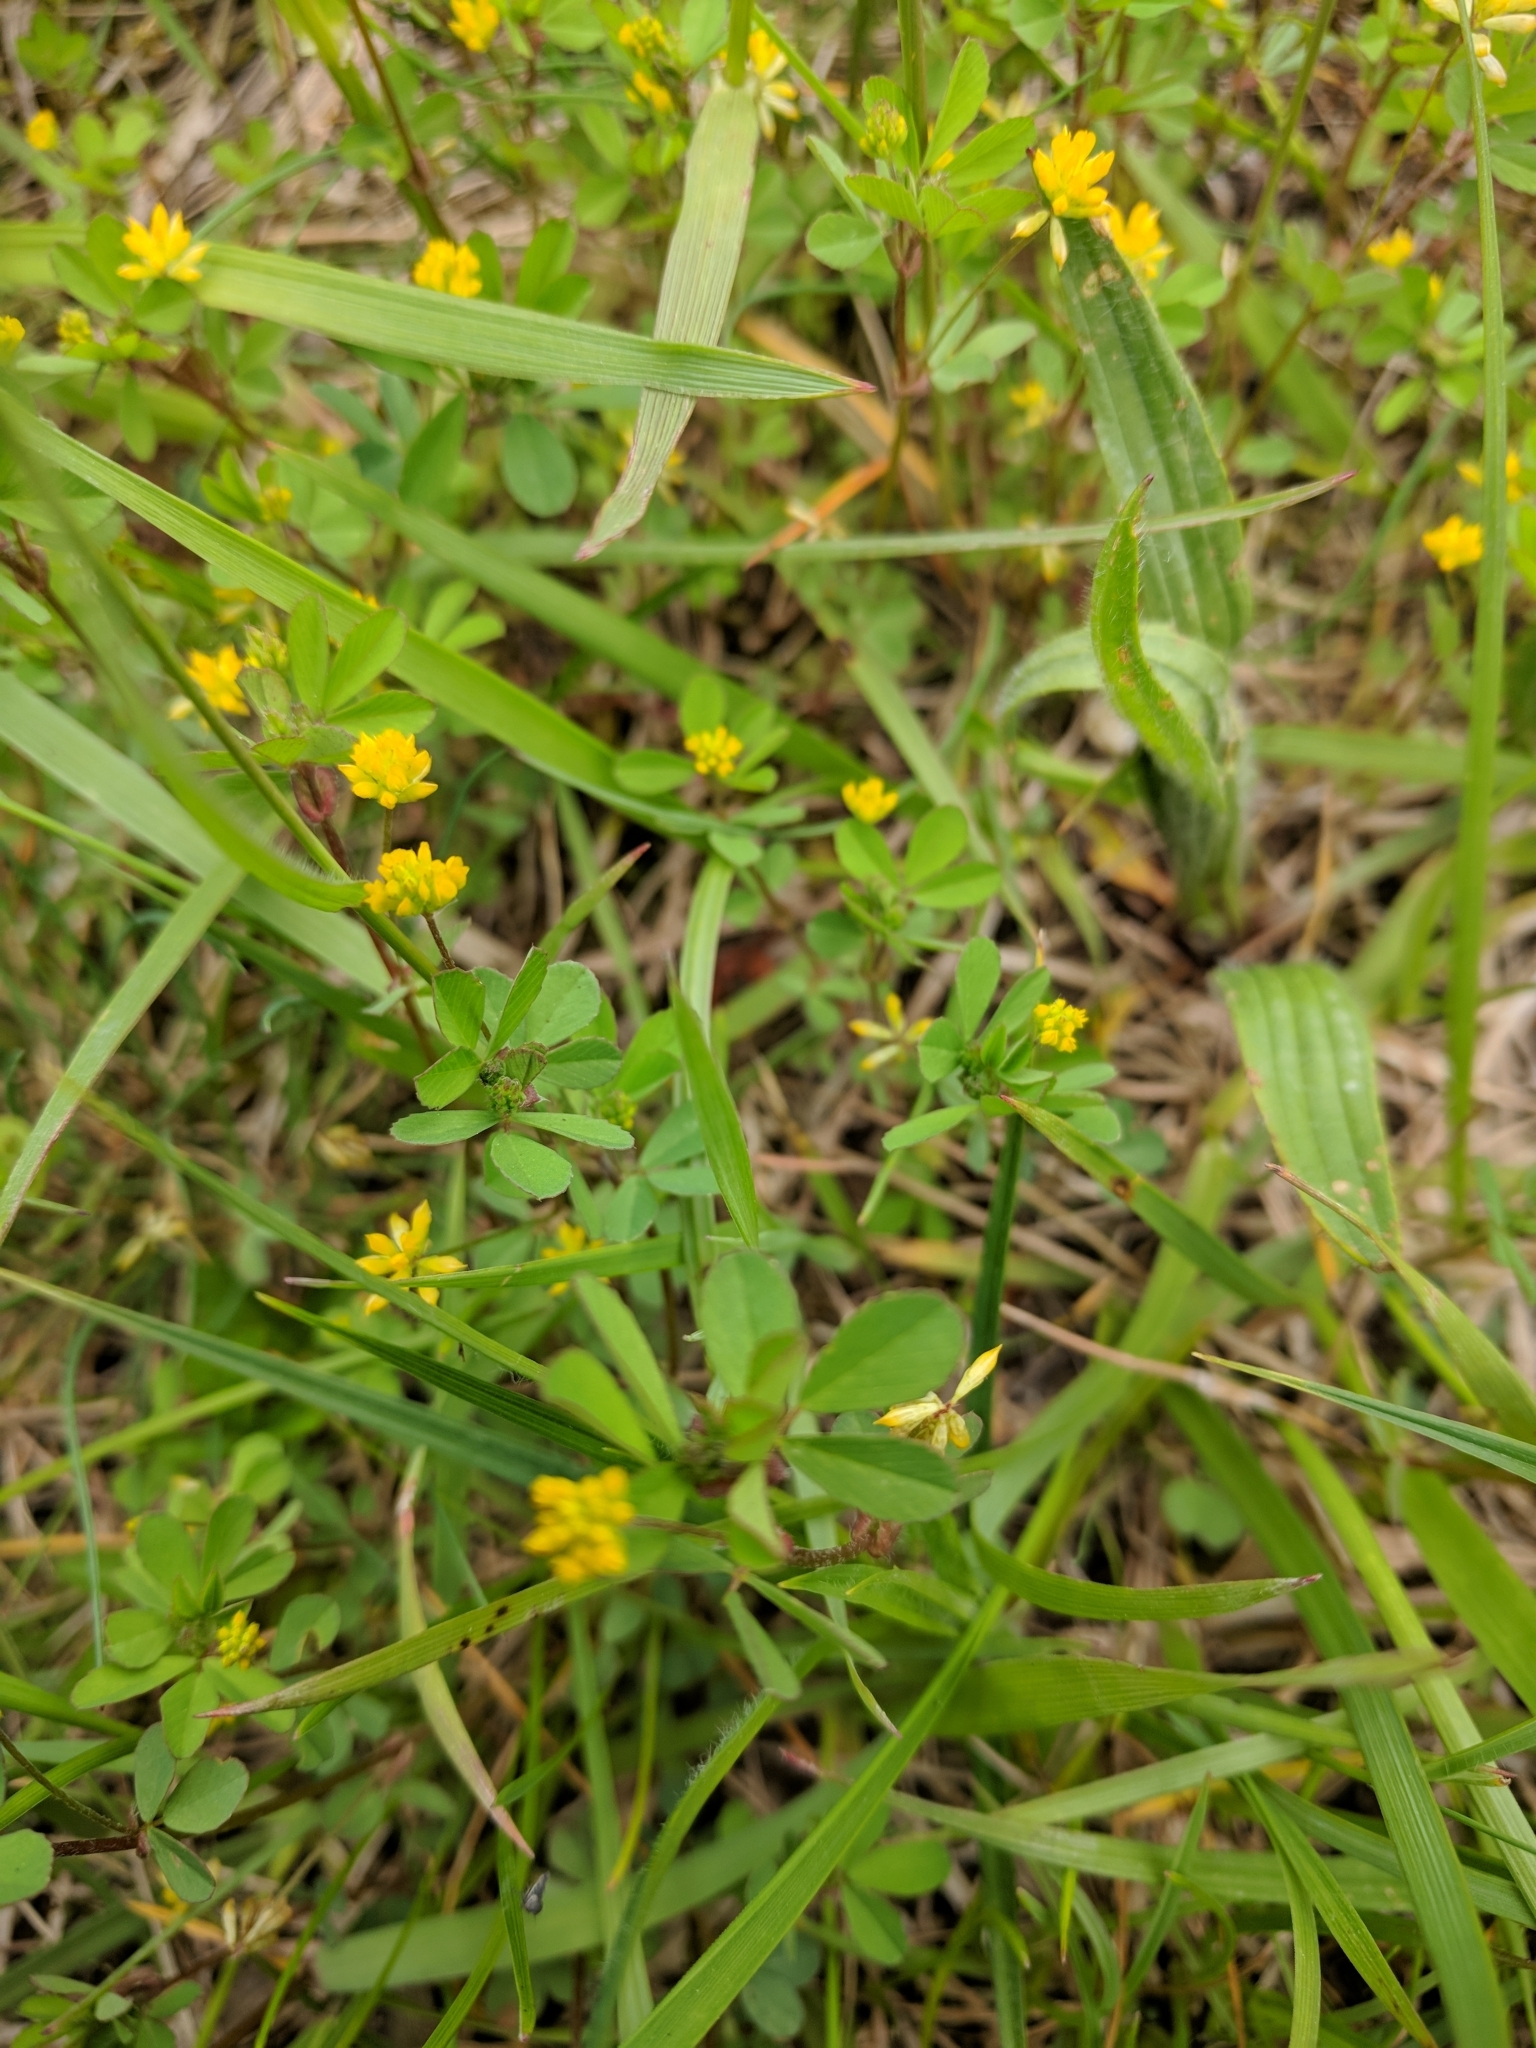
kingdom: Plantae
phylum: Tracheophyta
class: Magnoliopsida
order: Fabales
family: Fabaceae
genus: Trifolium
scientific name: Trifolium dubium
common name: Suckling clover
